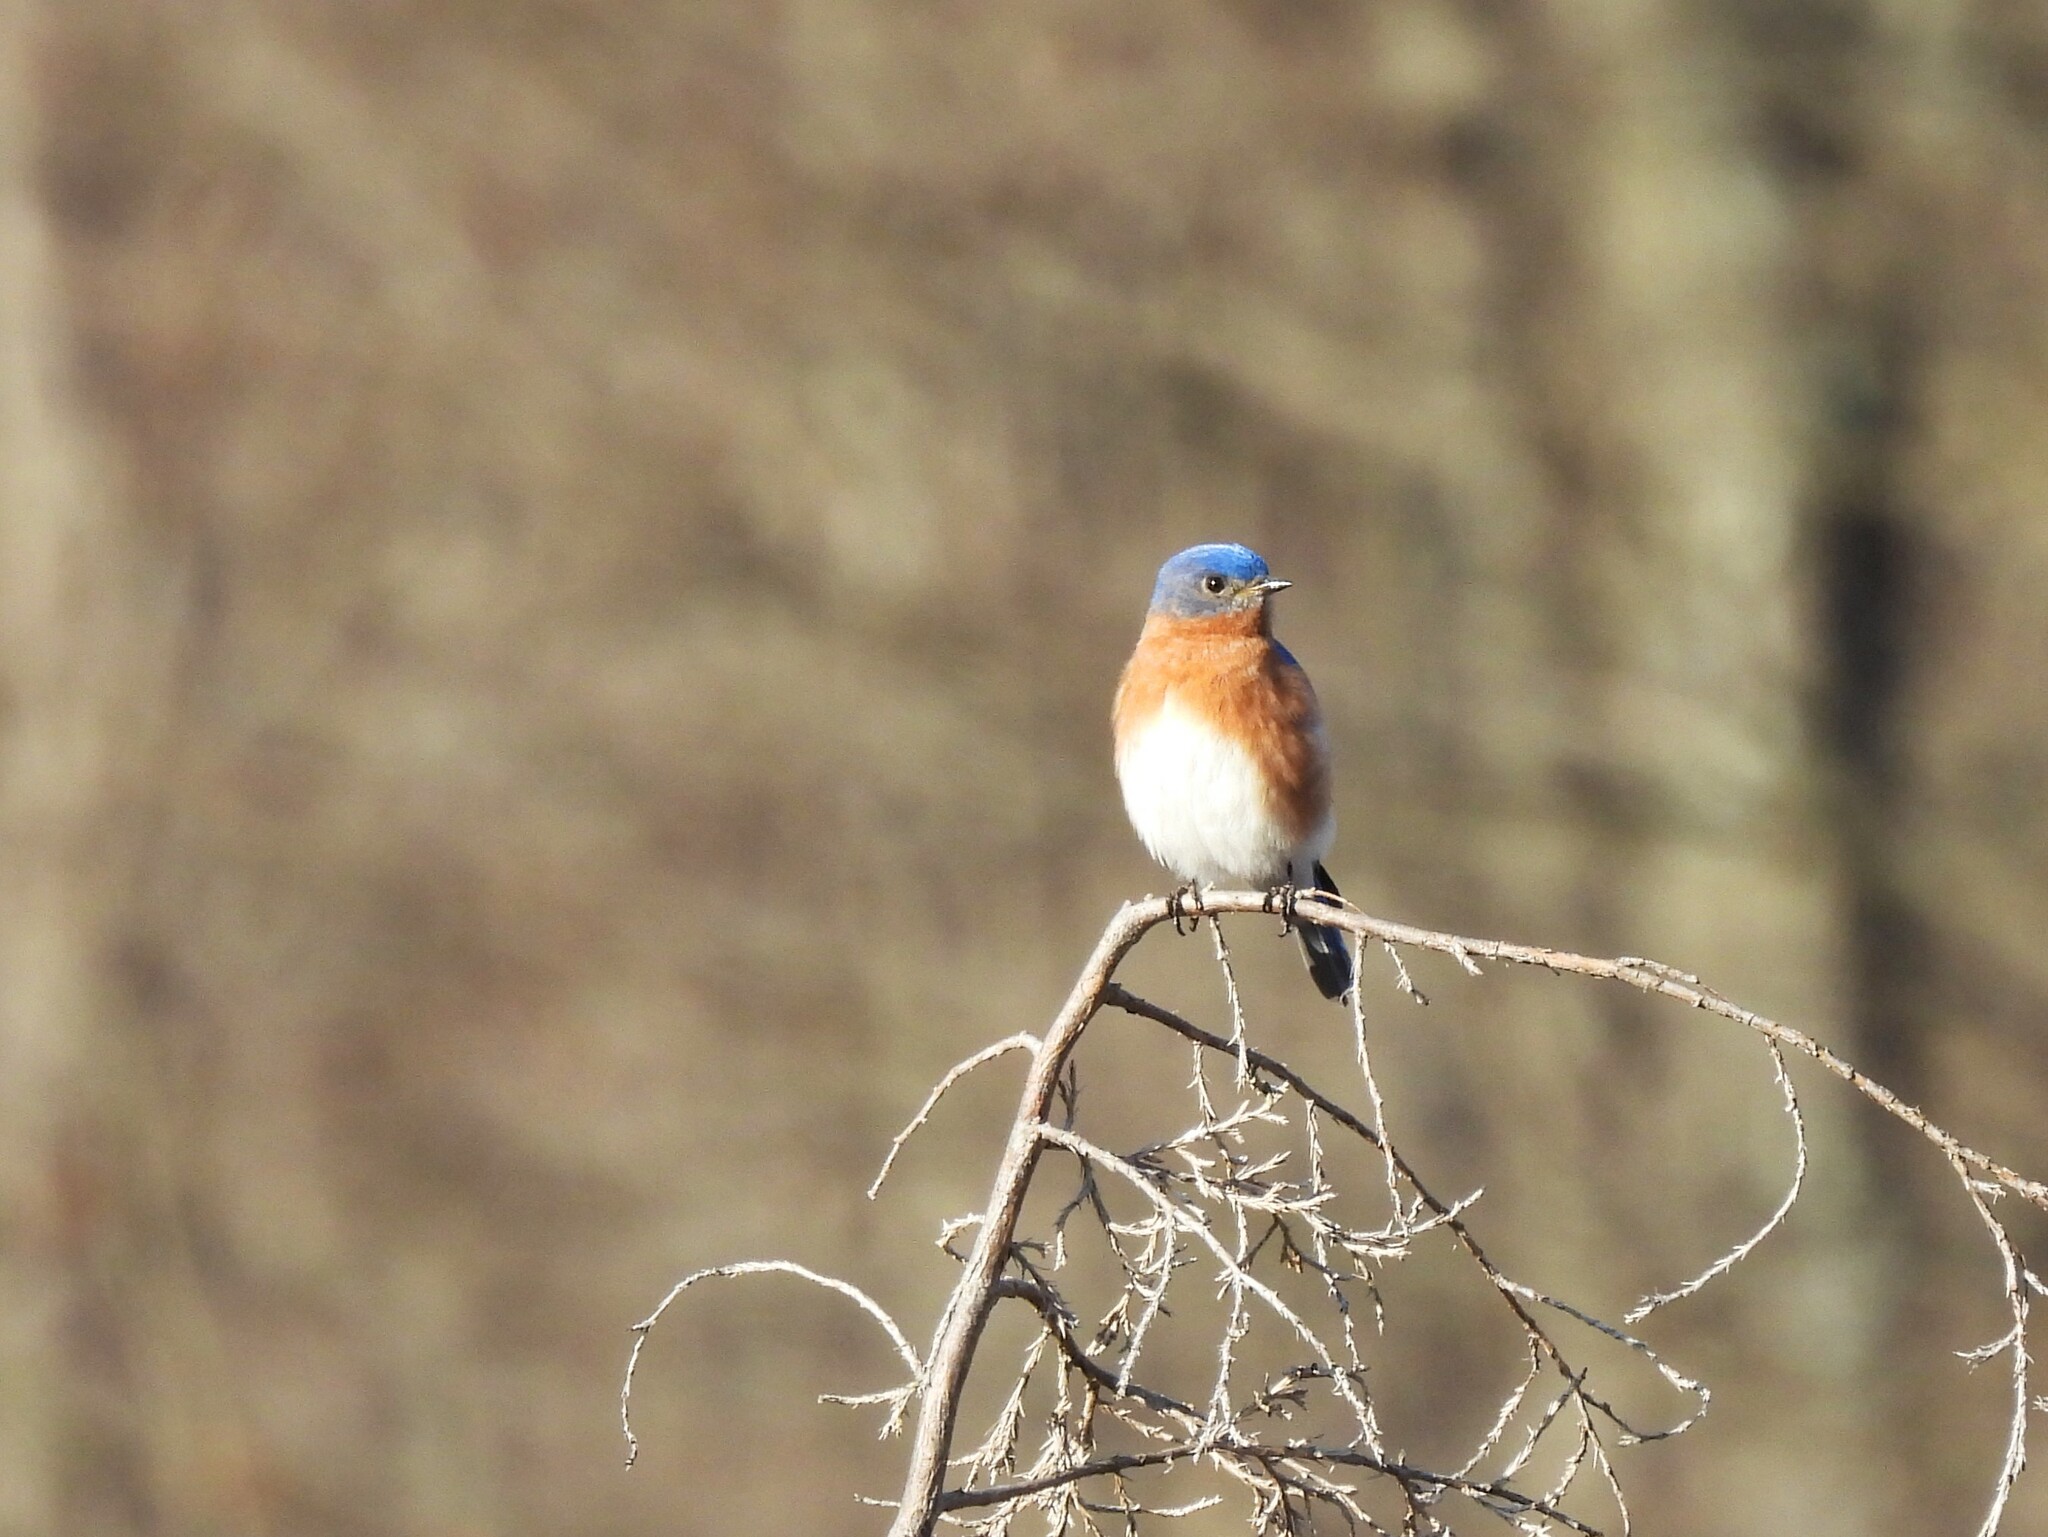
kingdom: Animalia
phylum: Chordata
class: Aves
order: Passeriformes
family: Turdidae
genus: Sialia
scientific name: Sialia sialis
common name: Eastern bluebird
